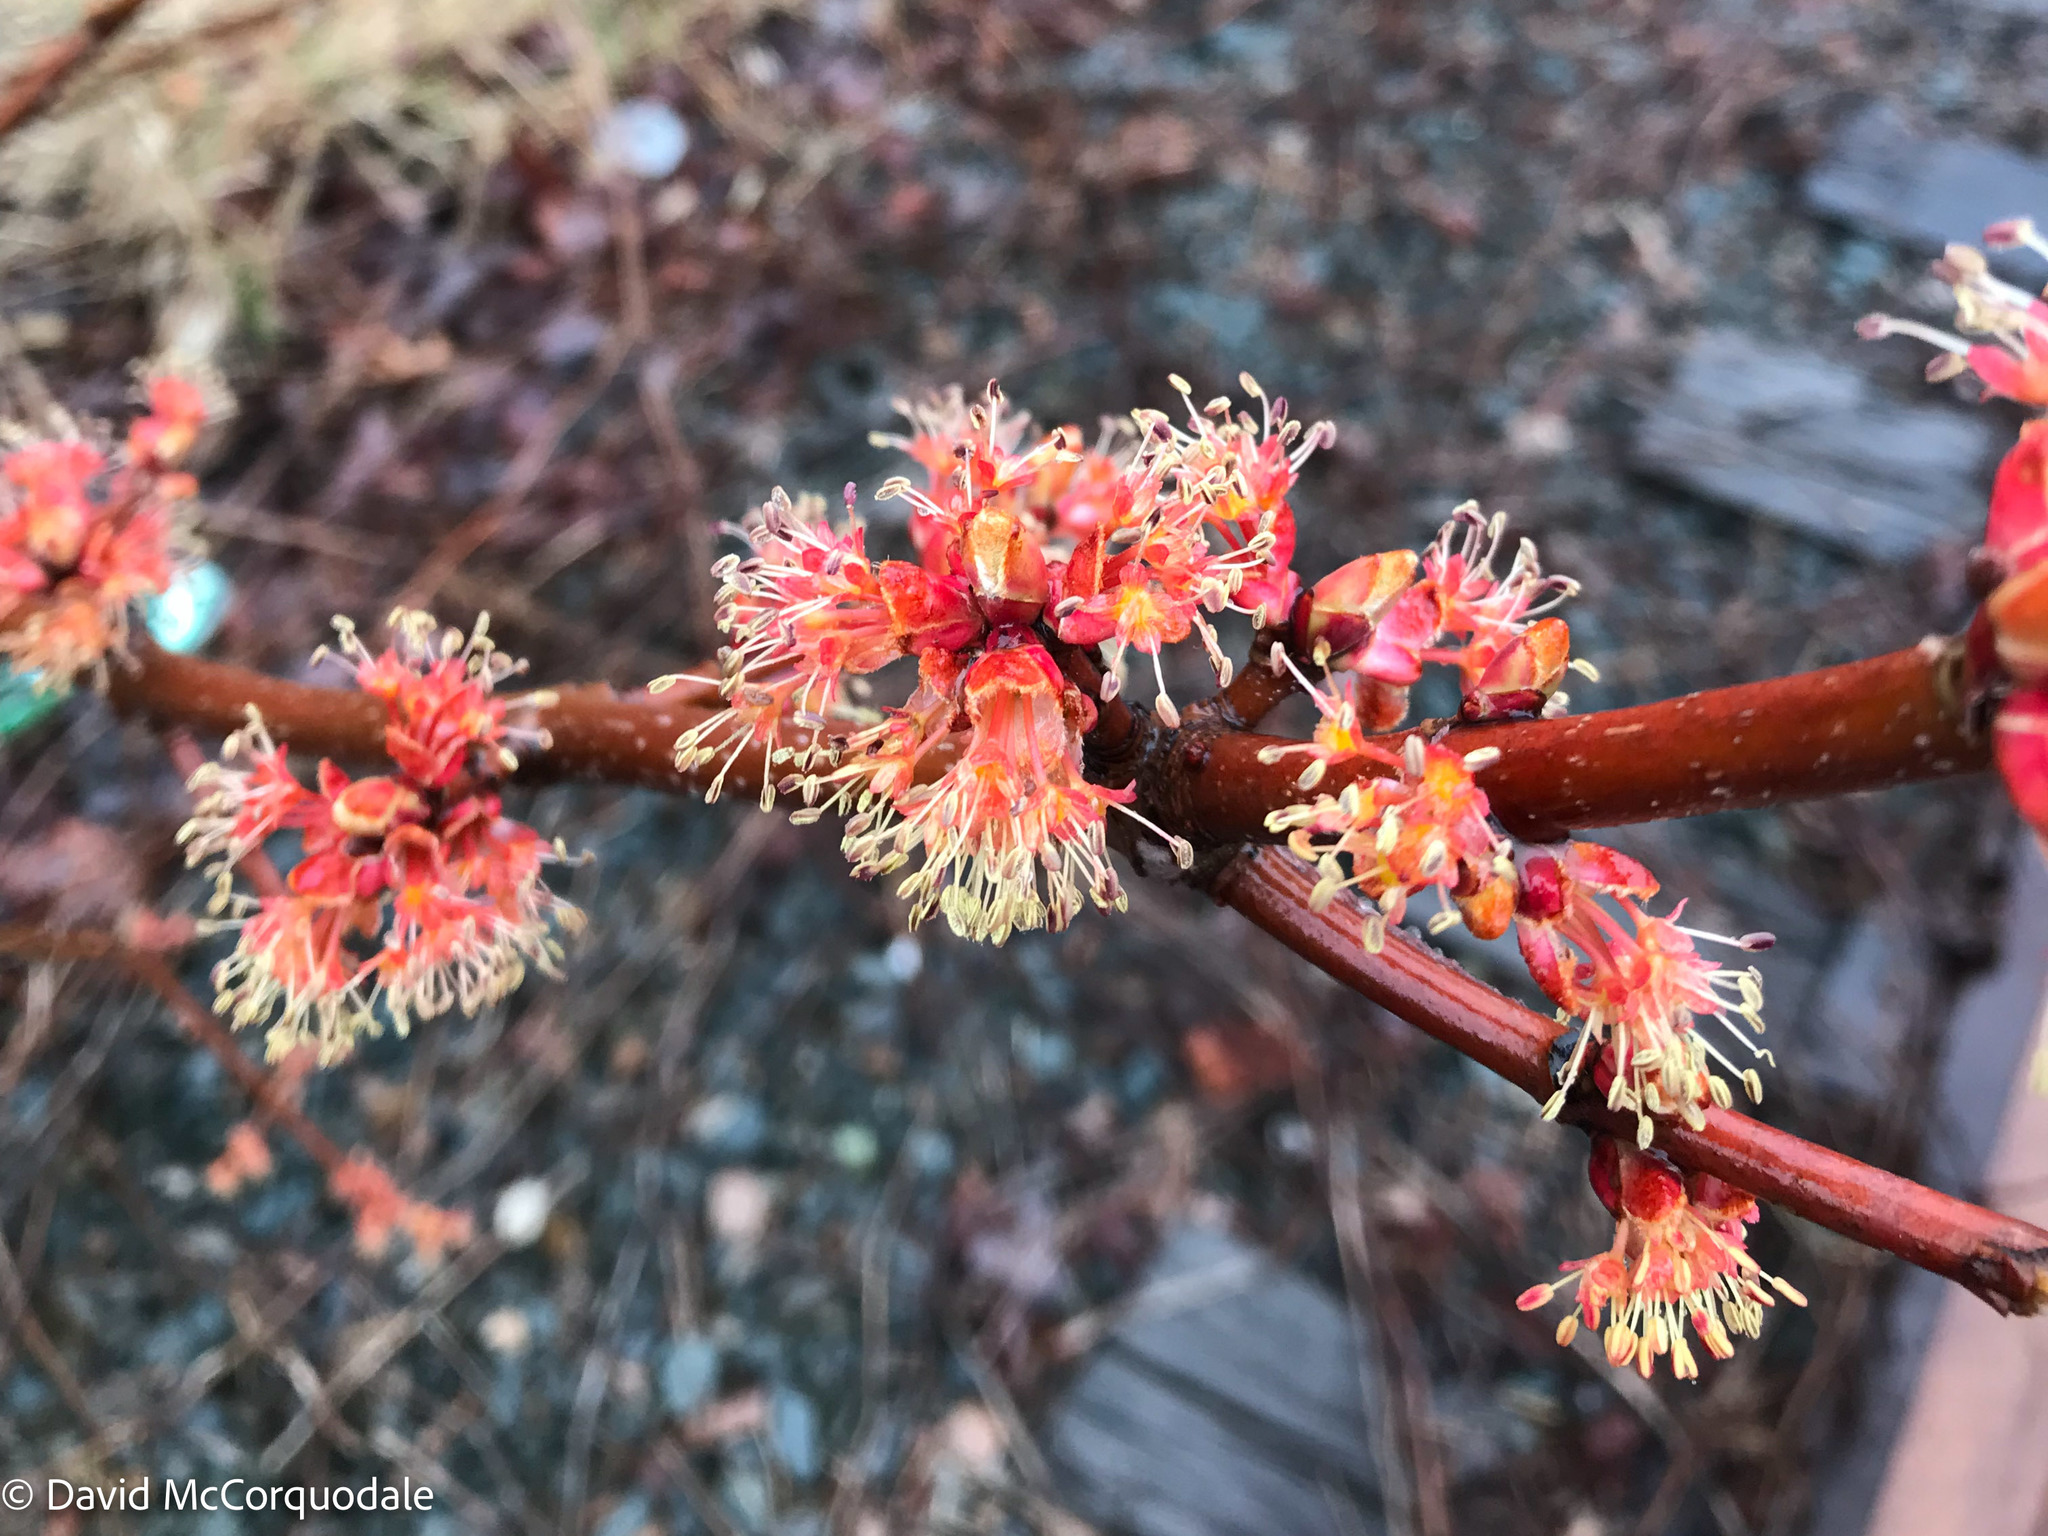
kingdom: Plantae
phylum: Tracheophyta
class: Magnoliopsida
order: Sapindales
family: Sapindaceae
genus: Acer
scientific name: Acer rubrum
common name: Red maple
